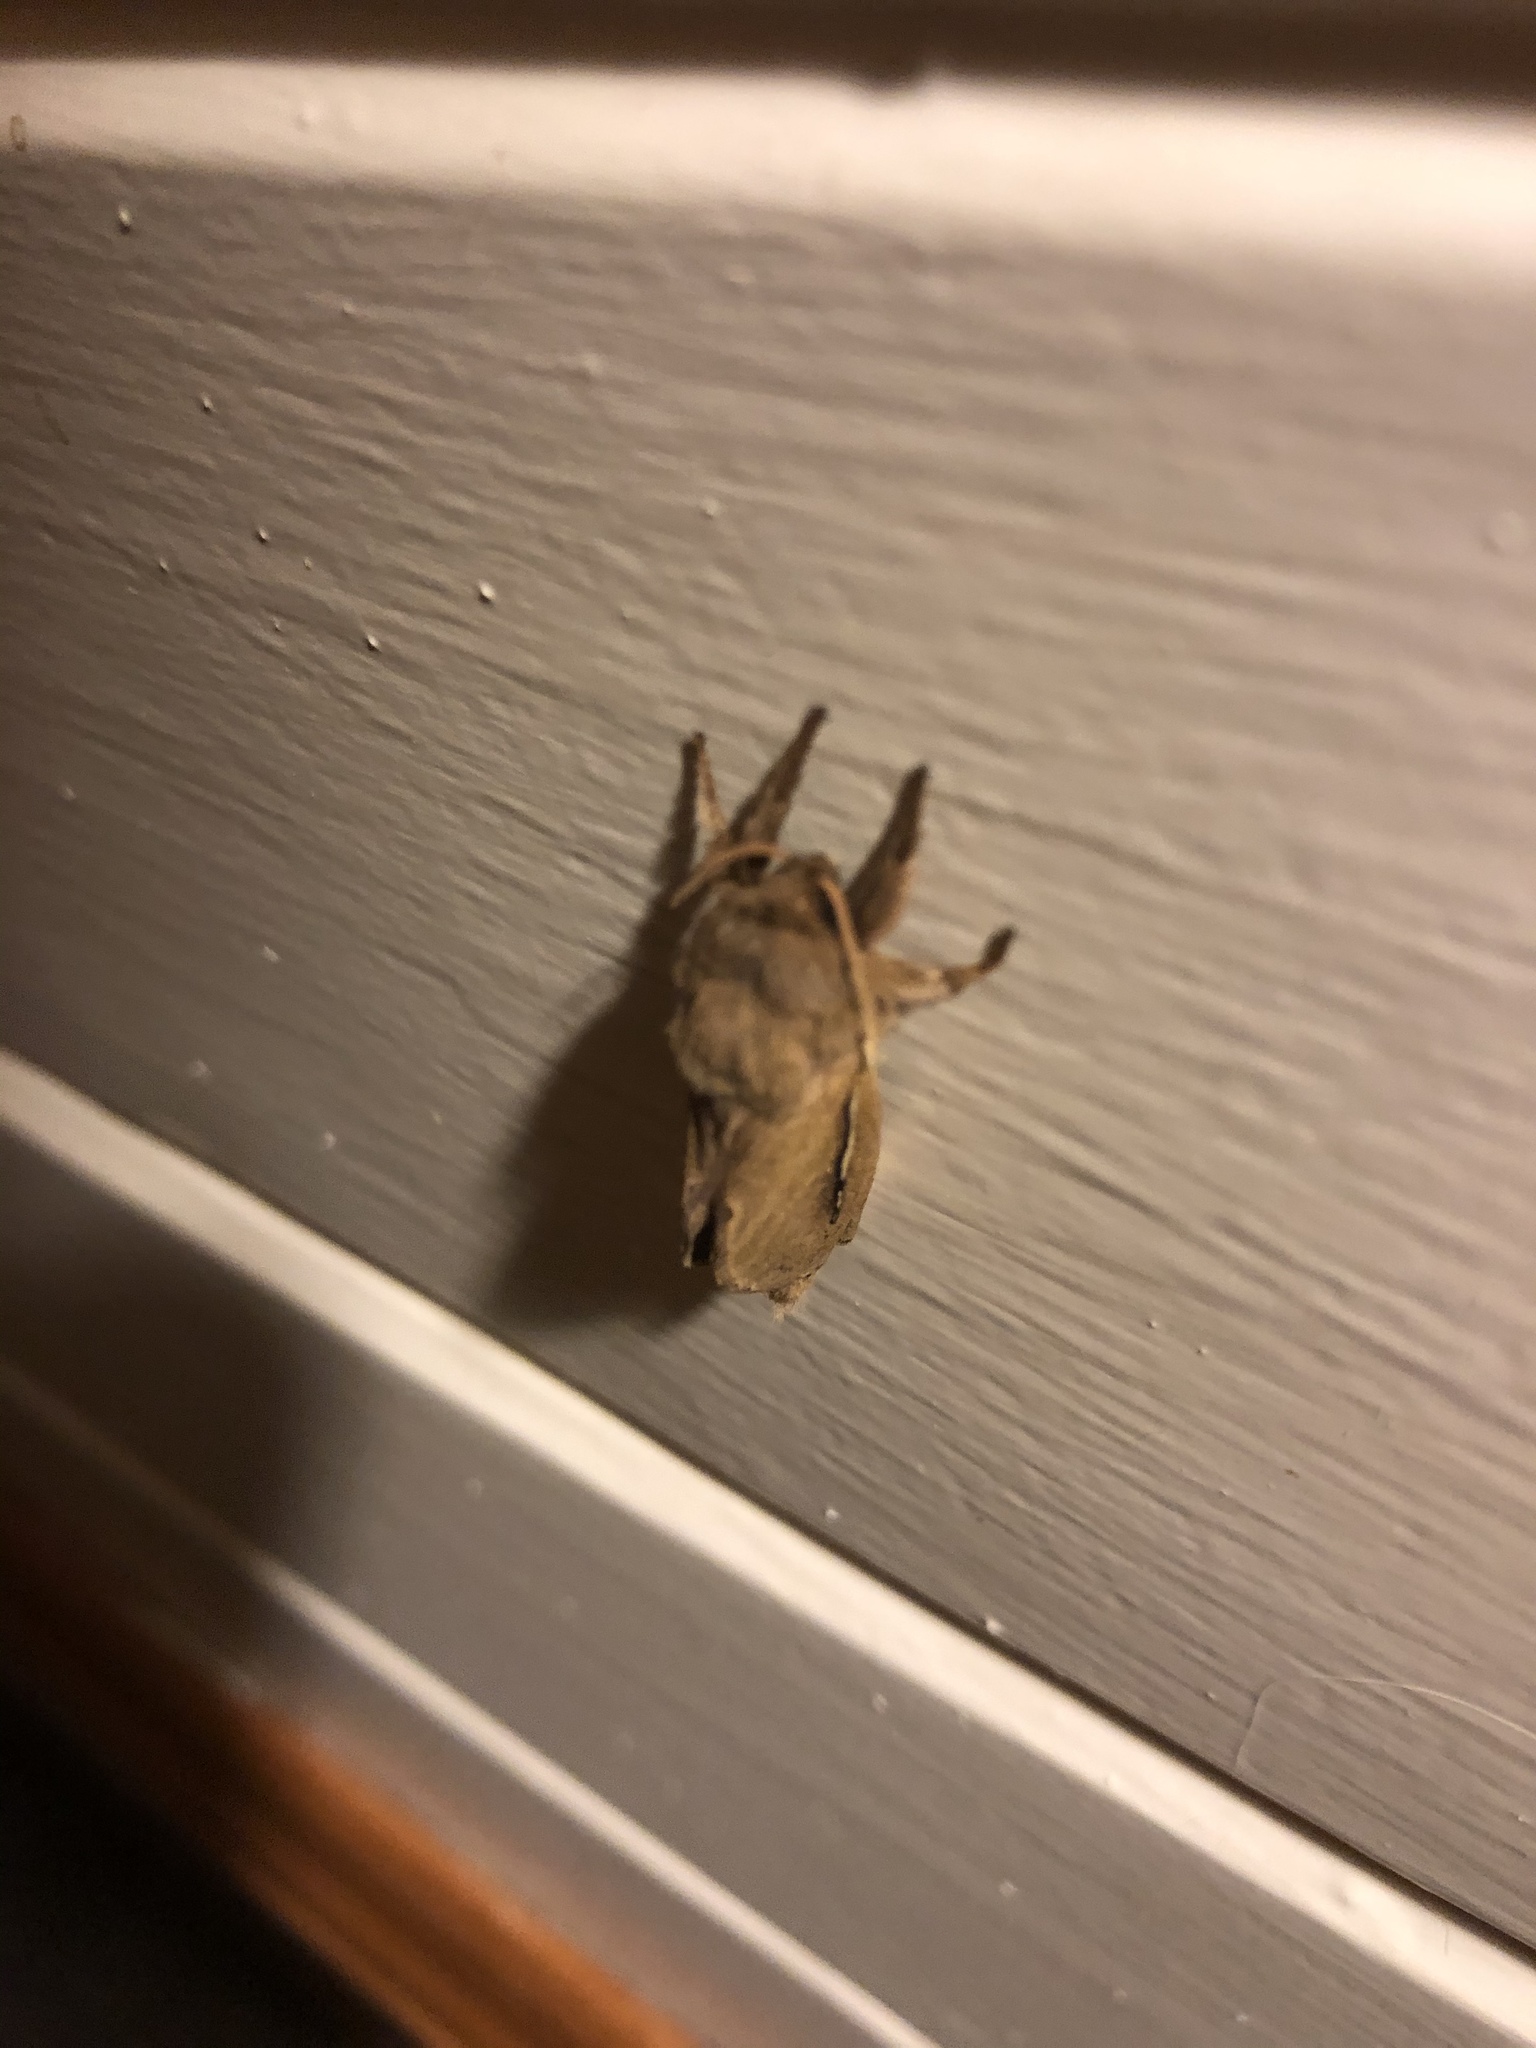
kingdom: Animalia
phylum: Arthropoda
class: Insecta
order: Lepidoptera
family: Hepialidae
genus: Wiseana
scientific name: Wiseana umbraculatus
